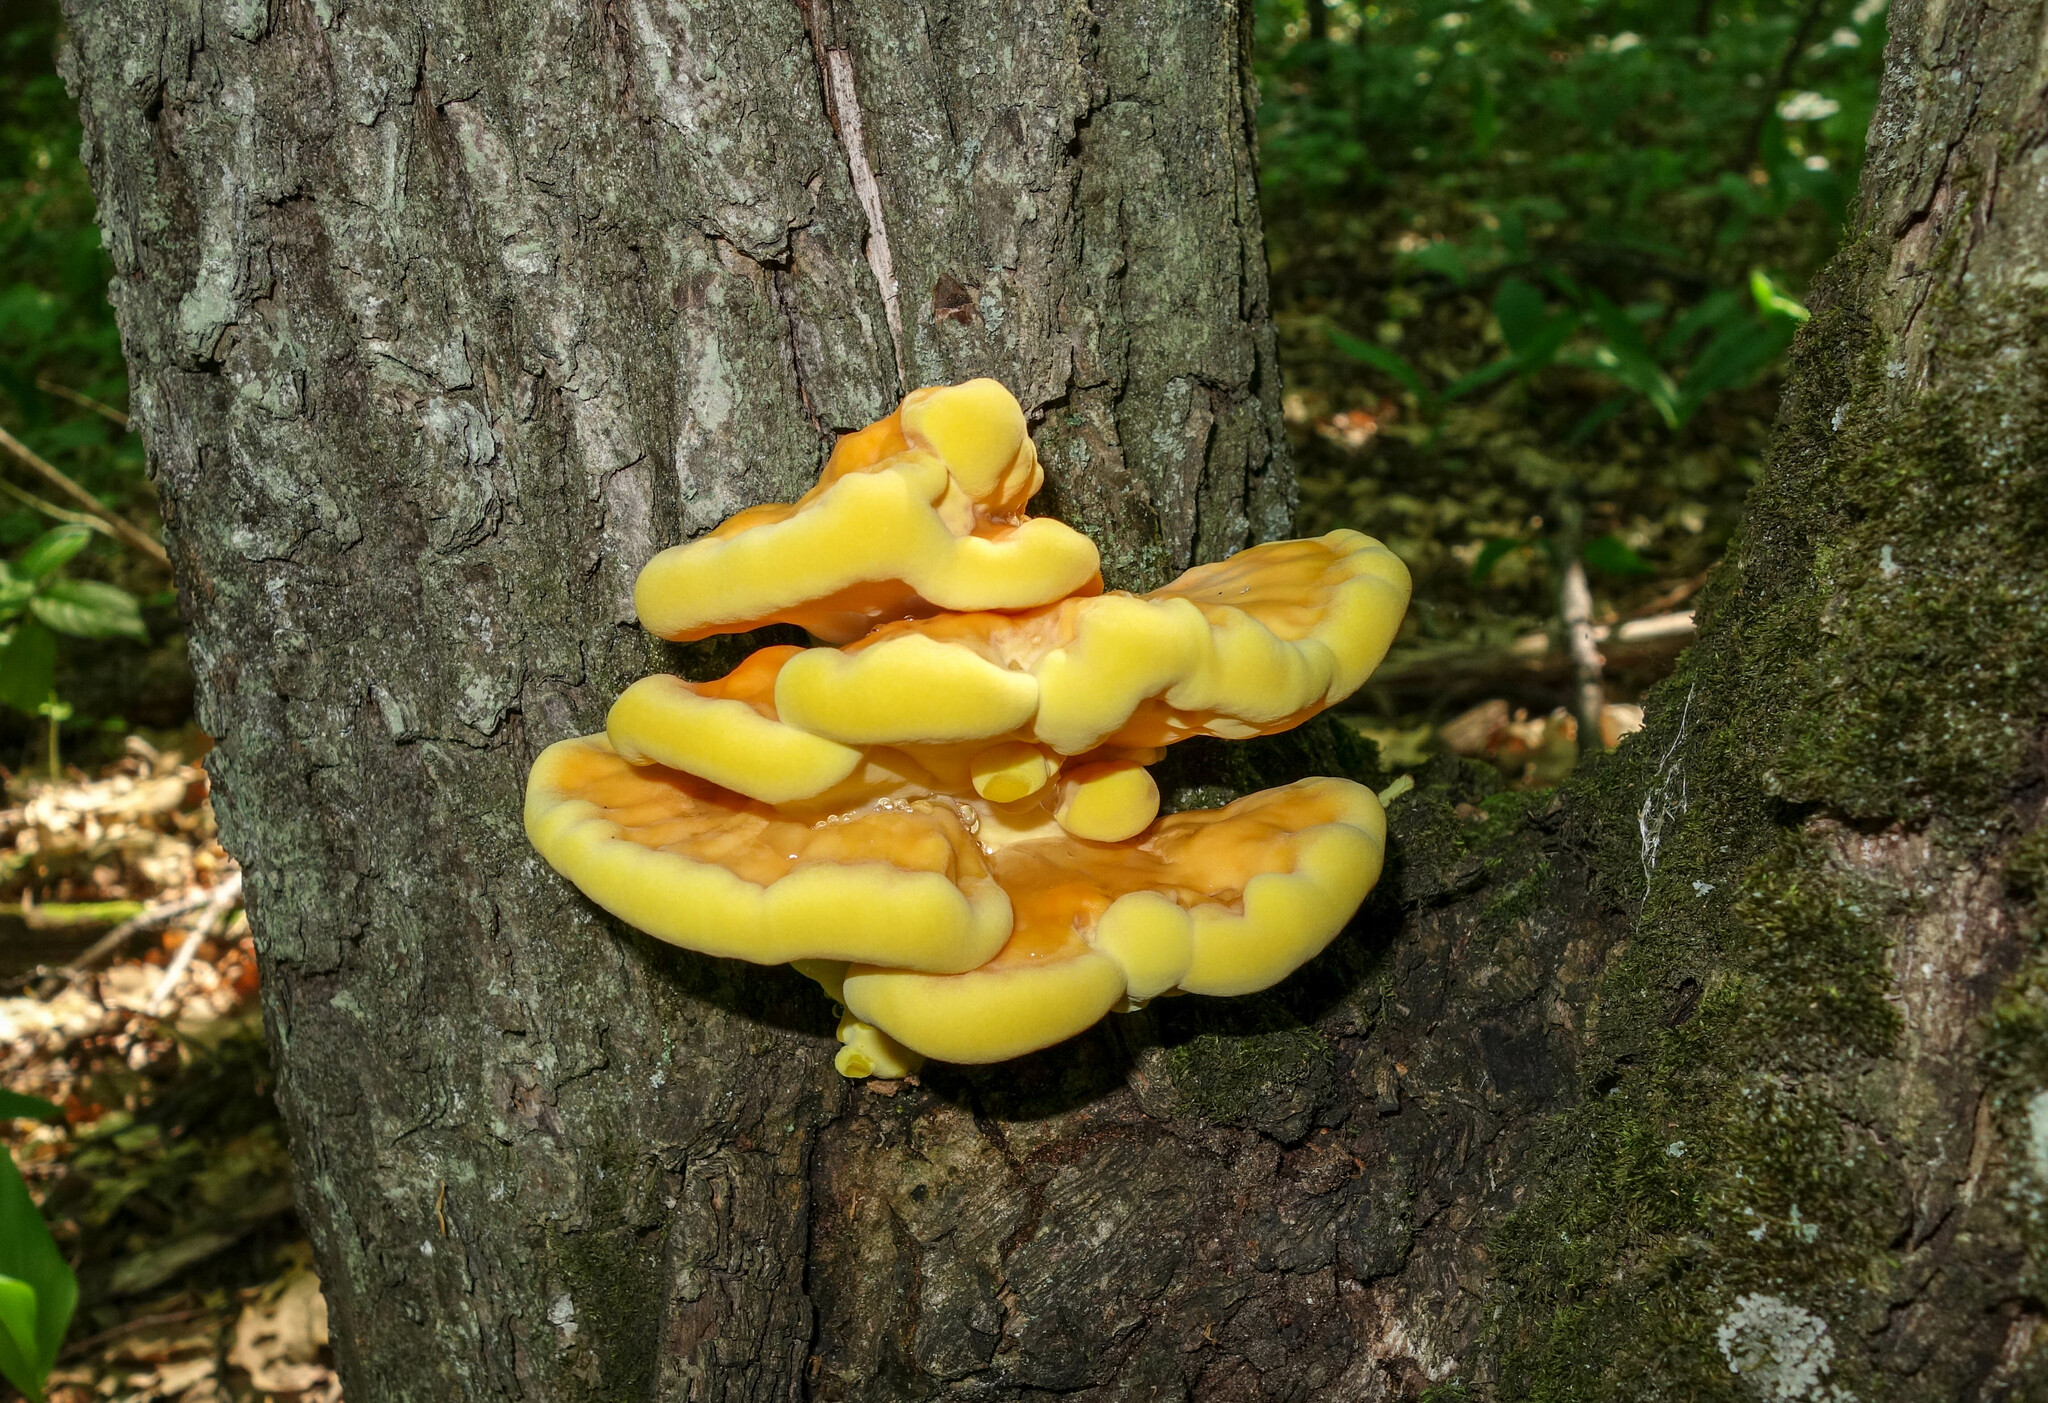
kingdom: Fungi
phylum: Basidiomycota
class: Agaricomycetes
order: Polyporales
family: Laetiporaceae
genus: Laetiporus
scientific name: Laetiporus sulphureus
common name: Chicken of the woods
